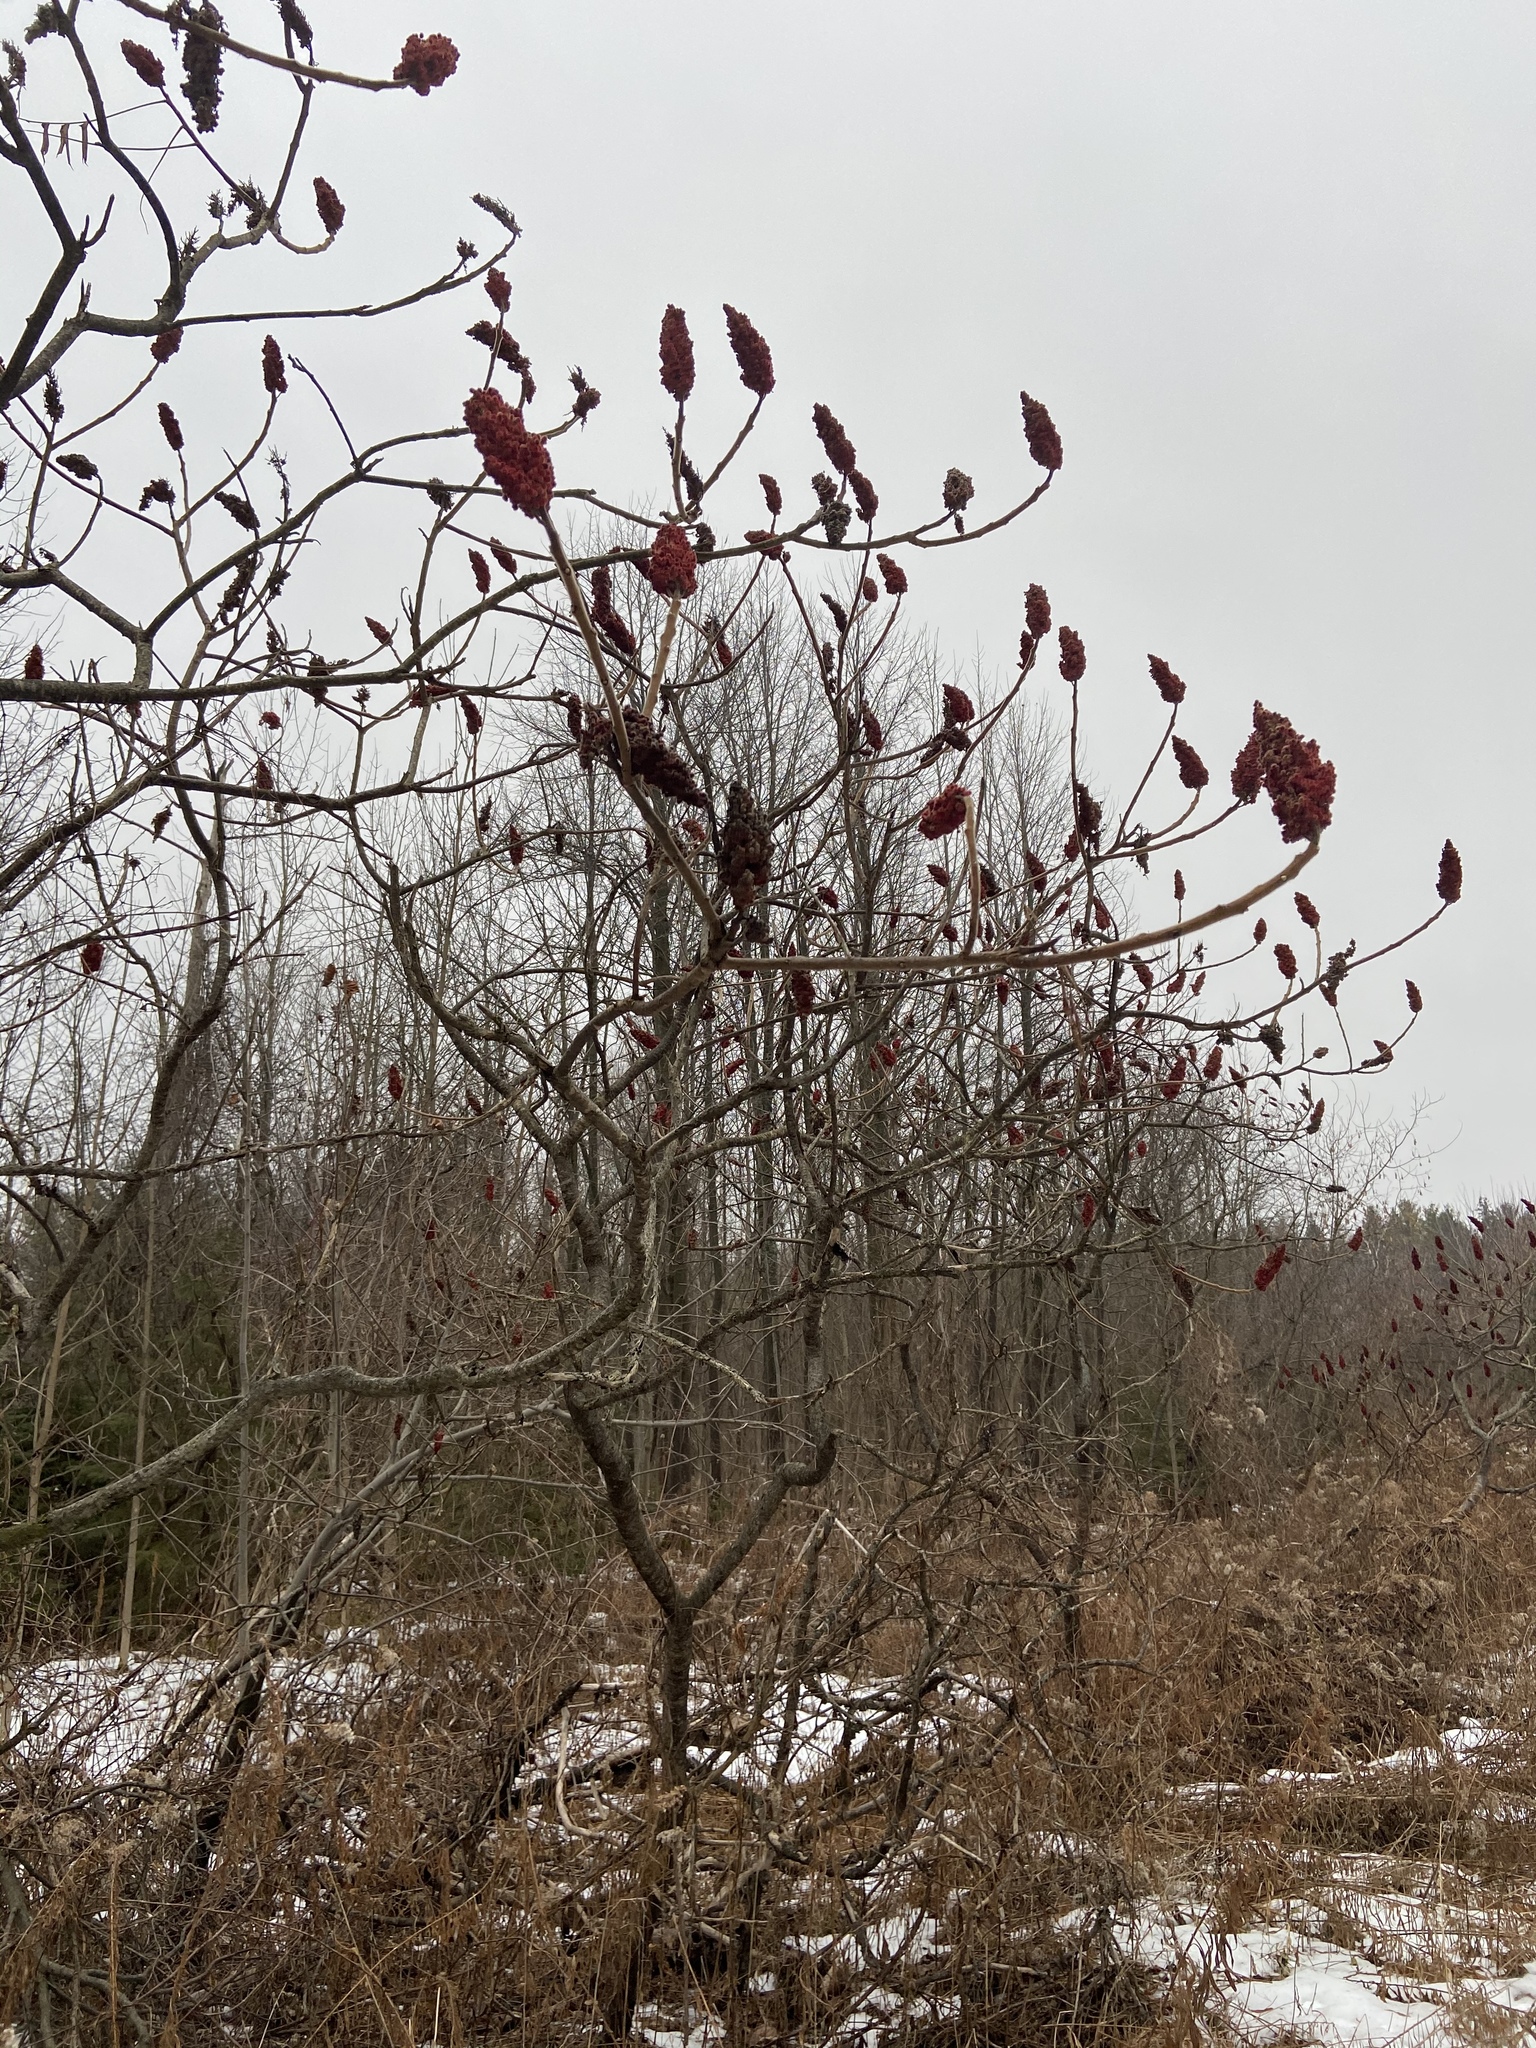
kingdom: Plantae
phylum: Tracheophyta
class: Magnoliopsida
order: Sapindales
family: Anacardiaceae
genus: Rhus
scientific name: Rhus typhina
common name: Staghorn sumac
